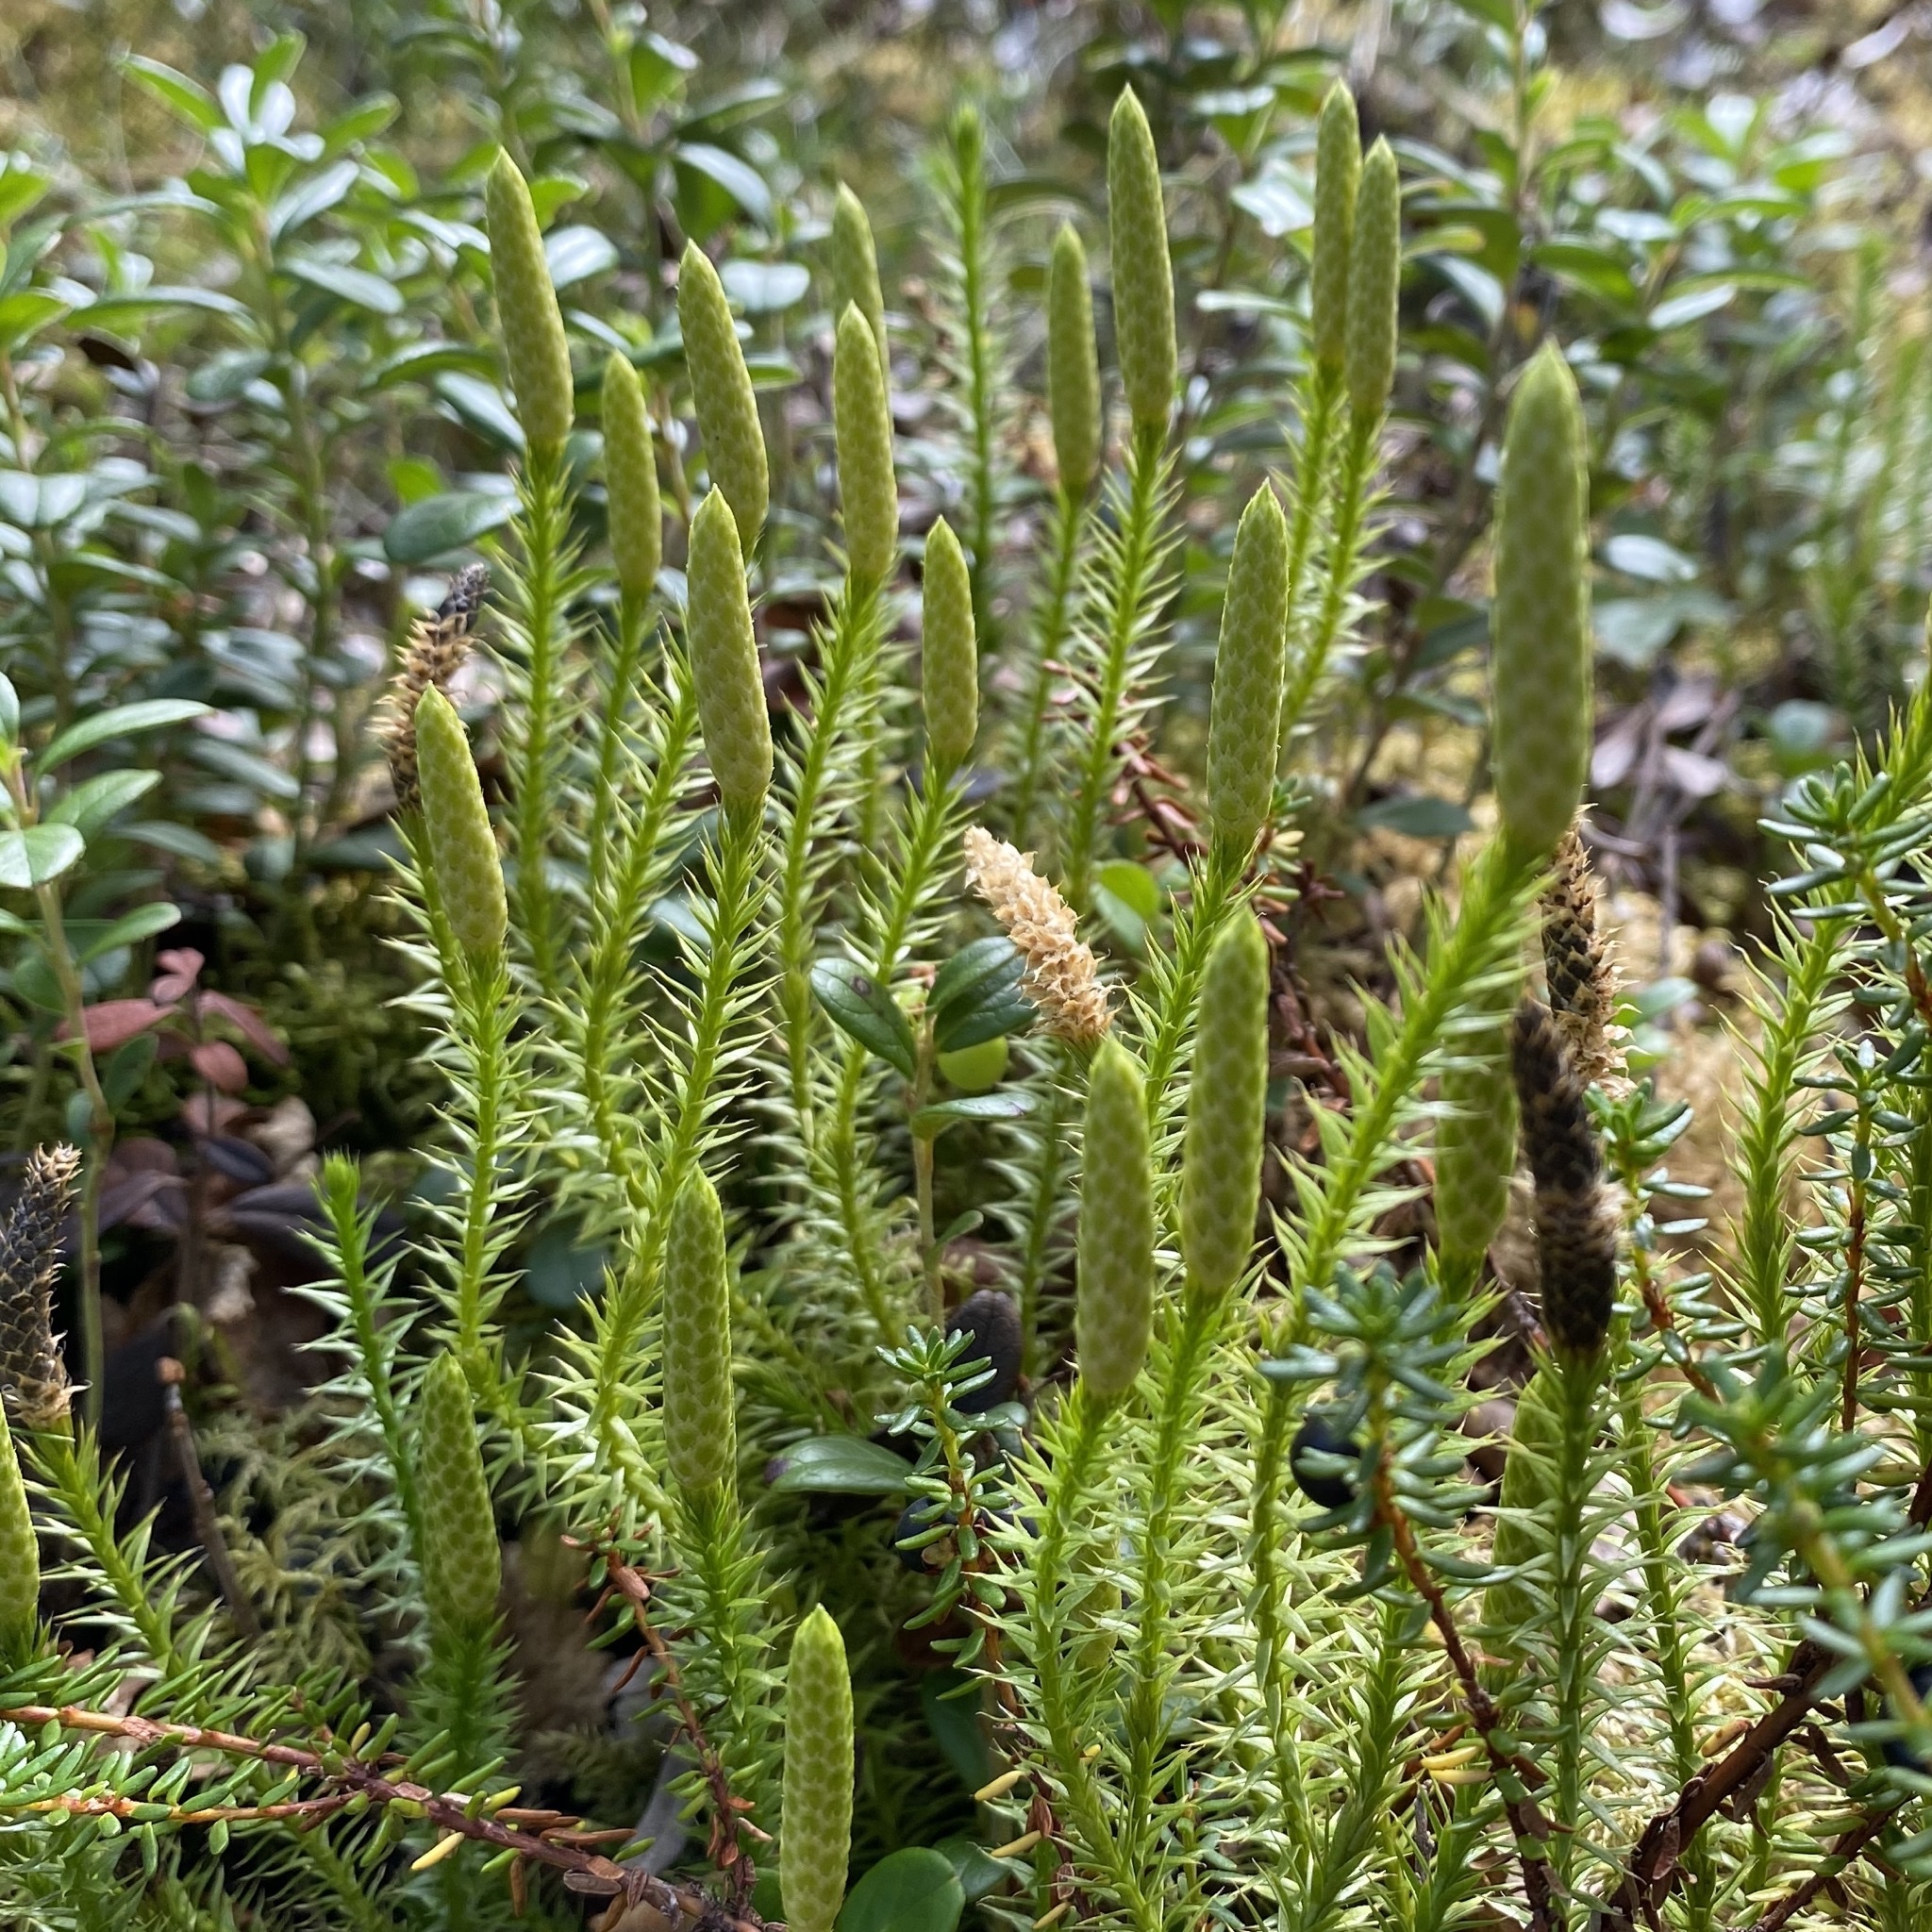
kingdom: Plantae
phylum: Tracheophyta
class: Lycopodiopsida
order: Lycopodiales
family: Lycopodiaceae
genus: Spinulum
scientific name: Spinulum annotinum
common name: Interrupted club-moss
